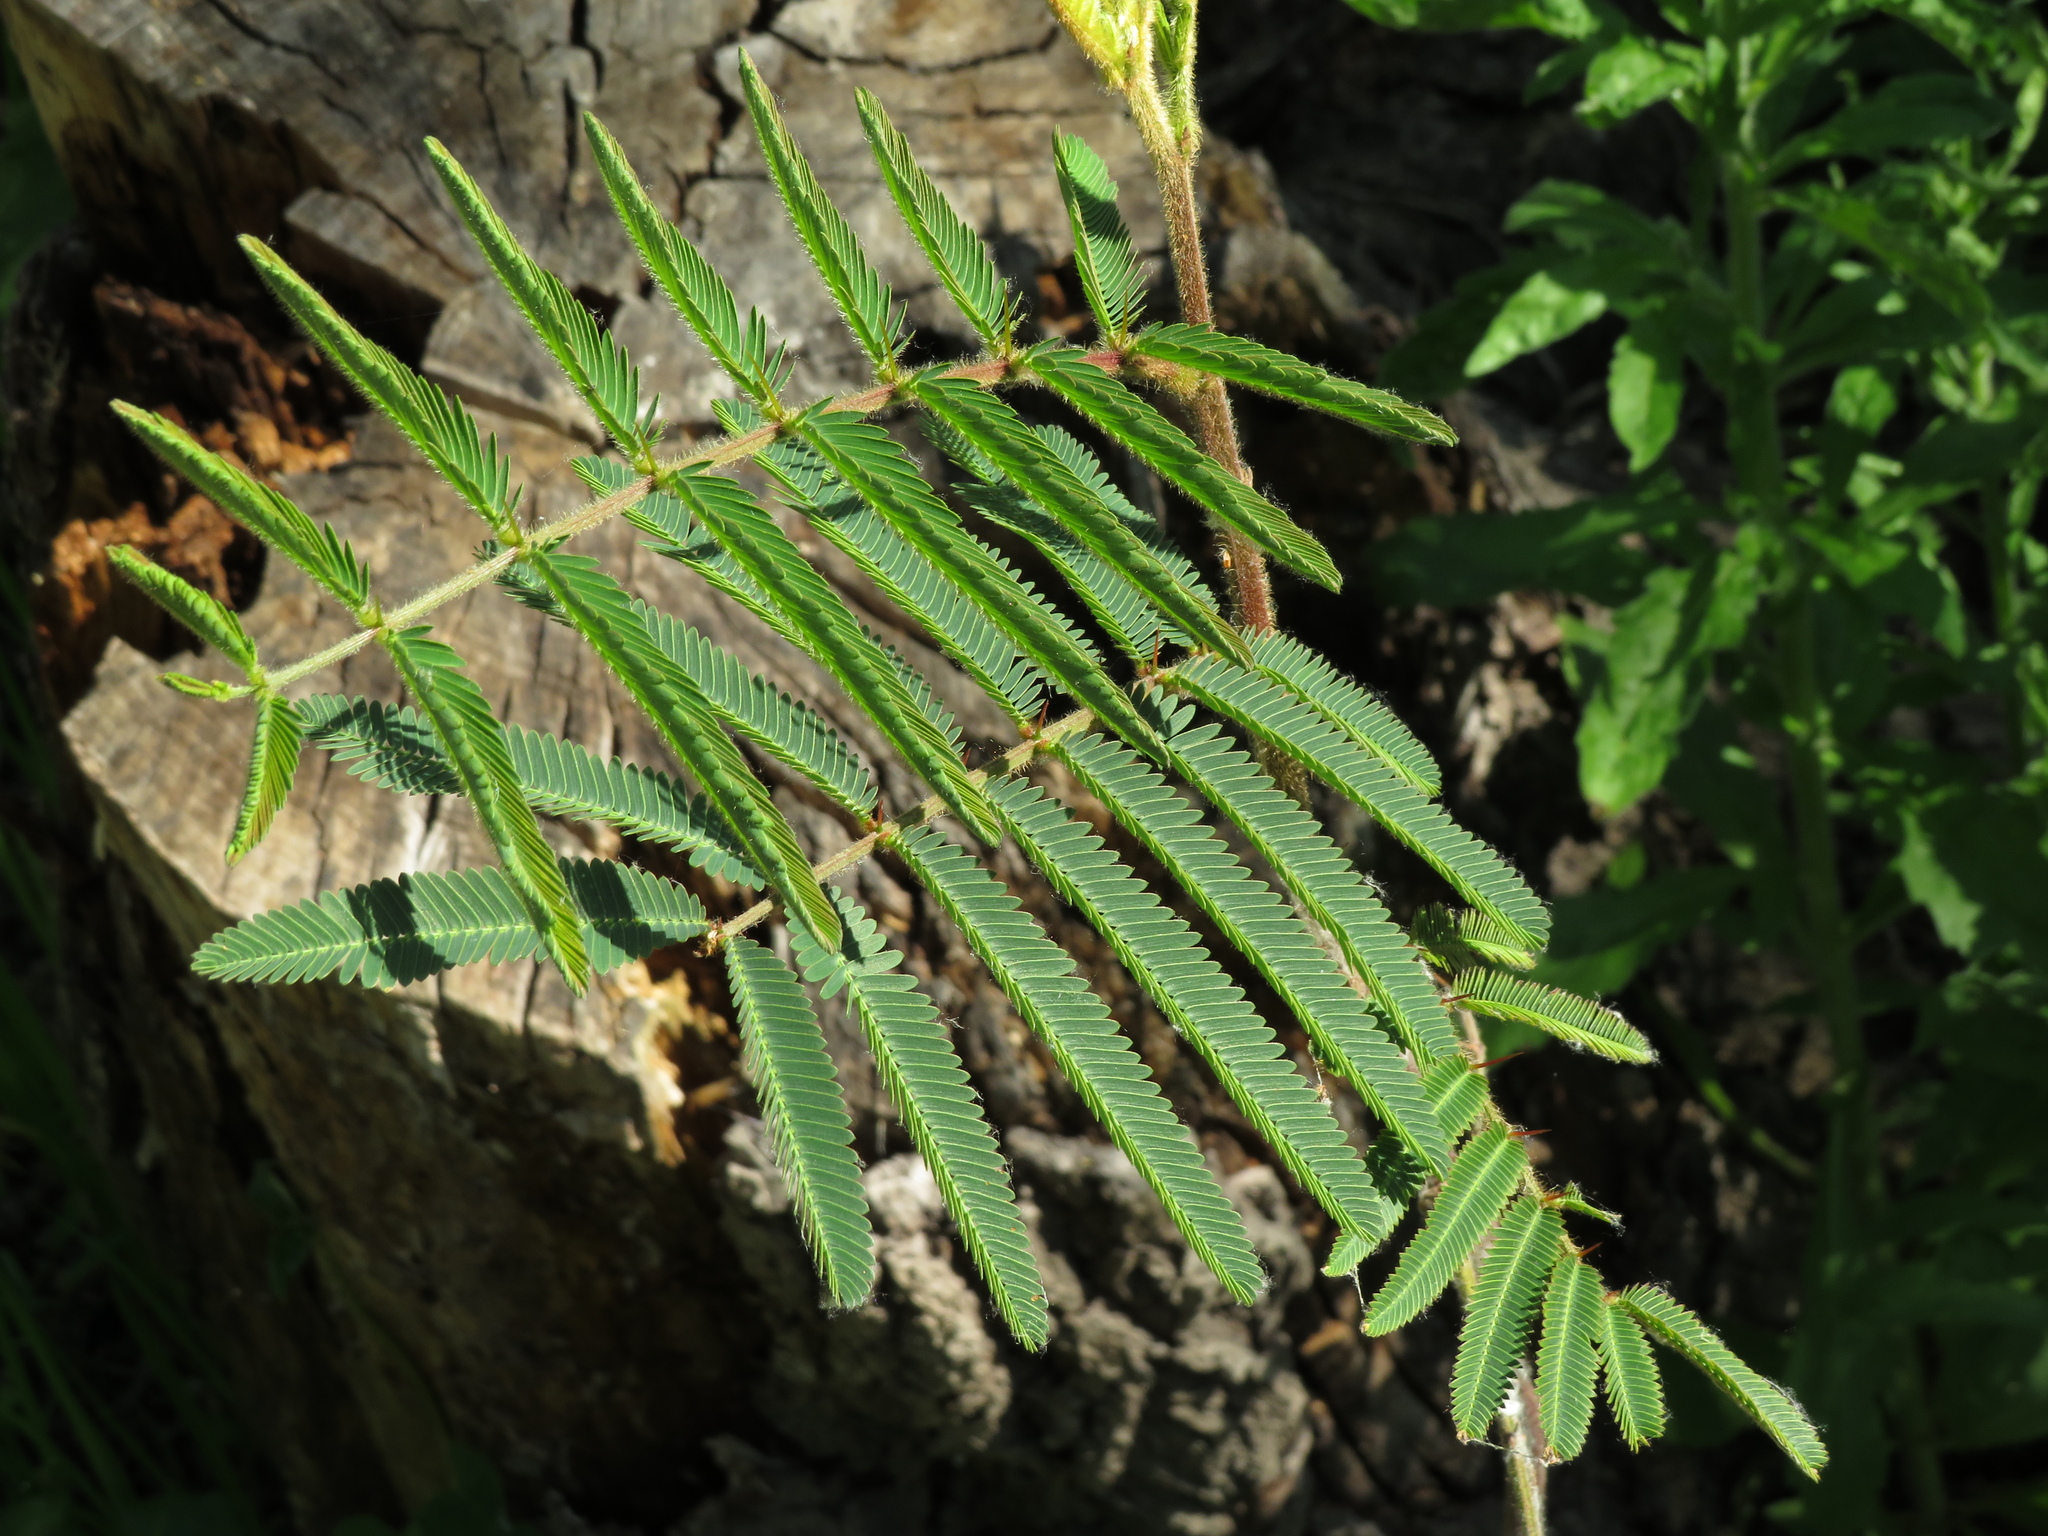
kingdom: Plantae
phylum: Tracheophyta
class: Magnoliopsida
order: Fabales
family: Fabaceae
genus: Mimosa
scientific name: Mimosa pigra
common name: Black mimosa
